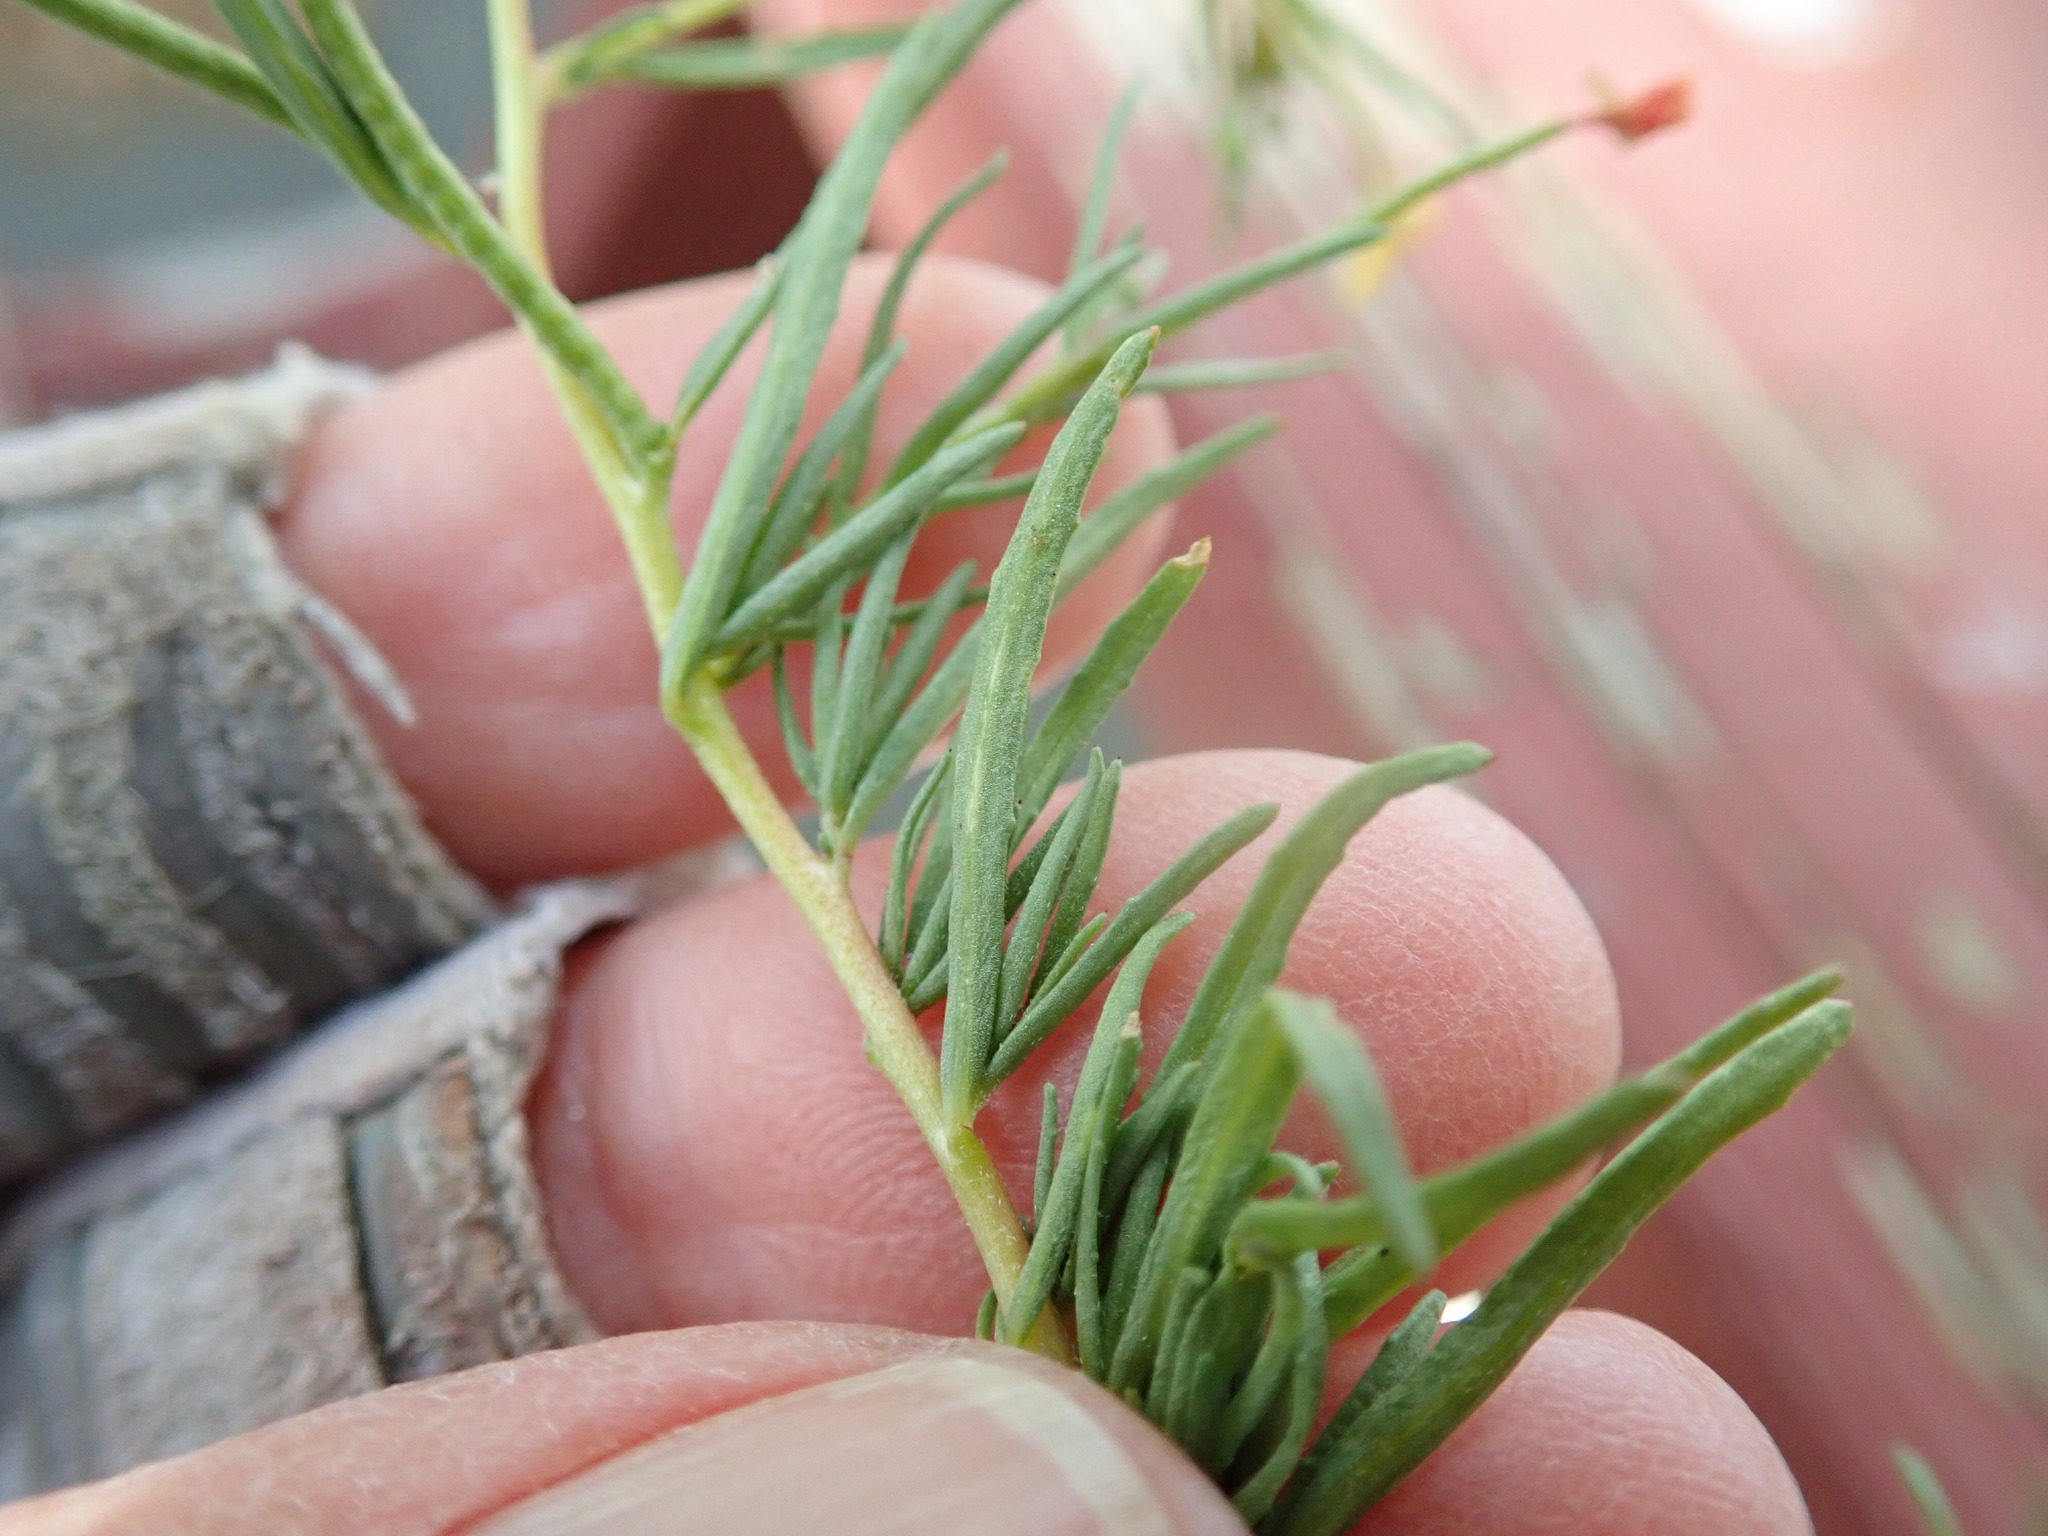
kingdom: Plantae
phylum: Tracheophyta
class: Magnoliopsida
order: Myrtales
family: Onagraceae
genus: Camissonia
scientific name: Camissonia strigulosa
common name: Contorted-primrose
